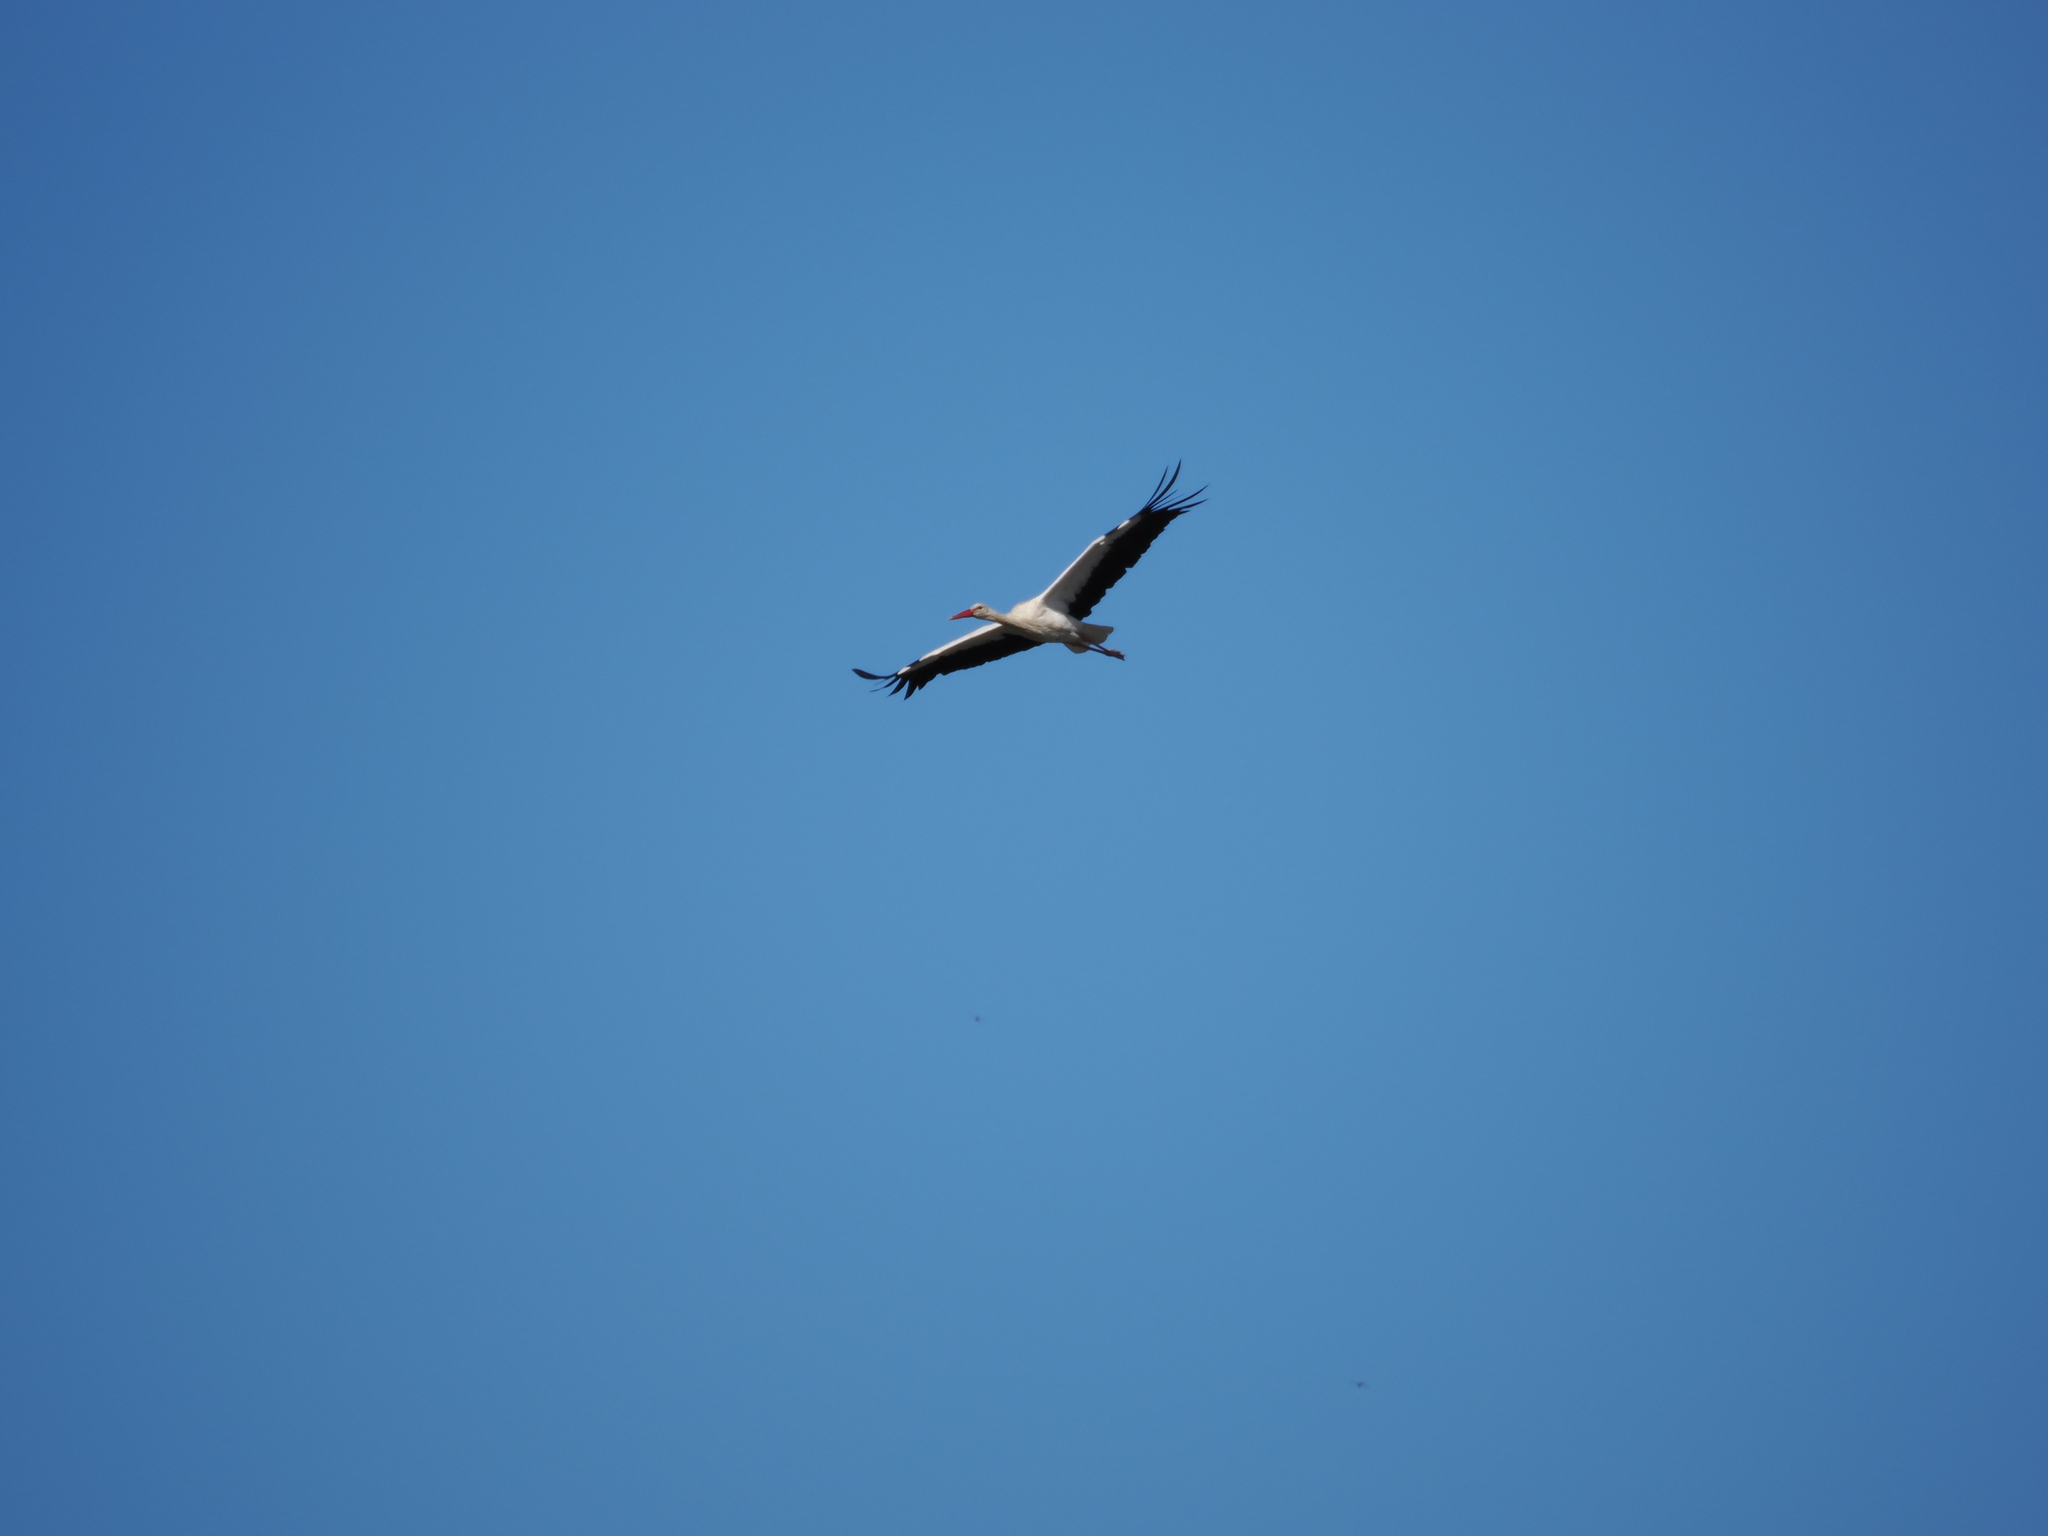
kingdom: Animalia
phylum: Chordata
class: Aves
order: Ciconiiformes
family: Ciconiidae
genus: Ciconia
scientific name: Ciconia ciconia
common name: White stork
